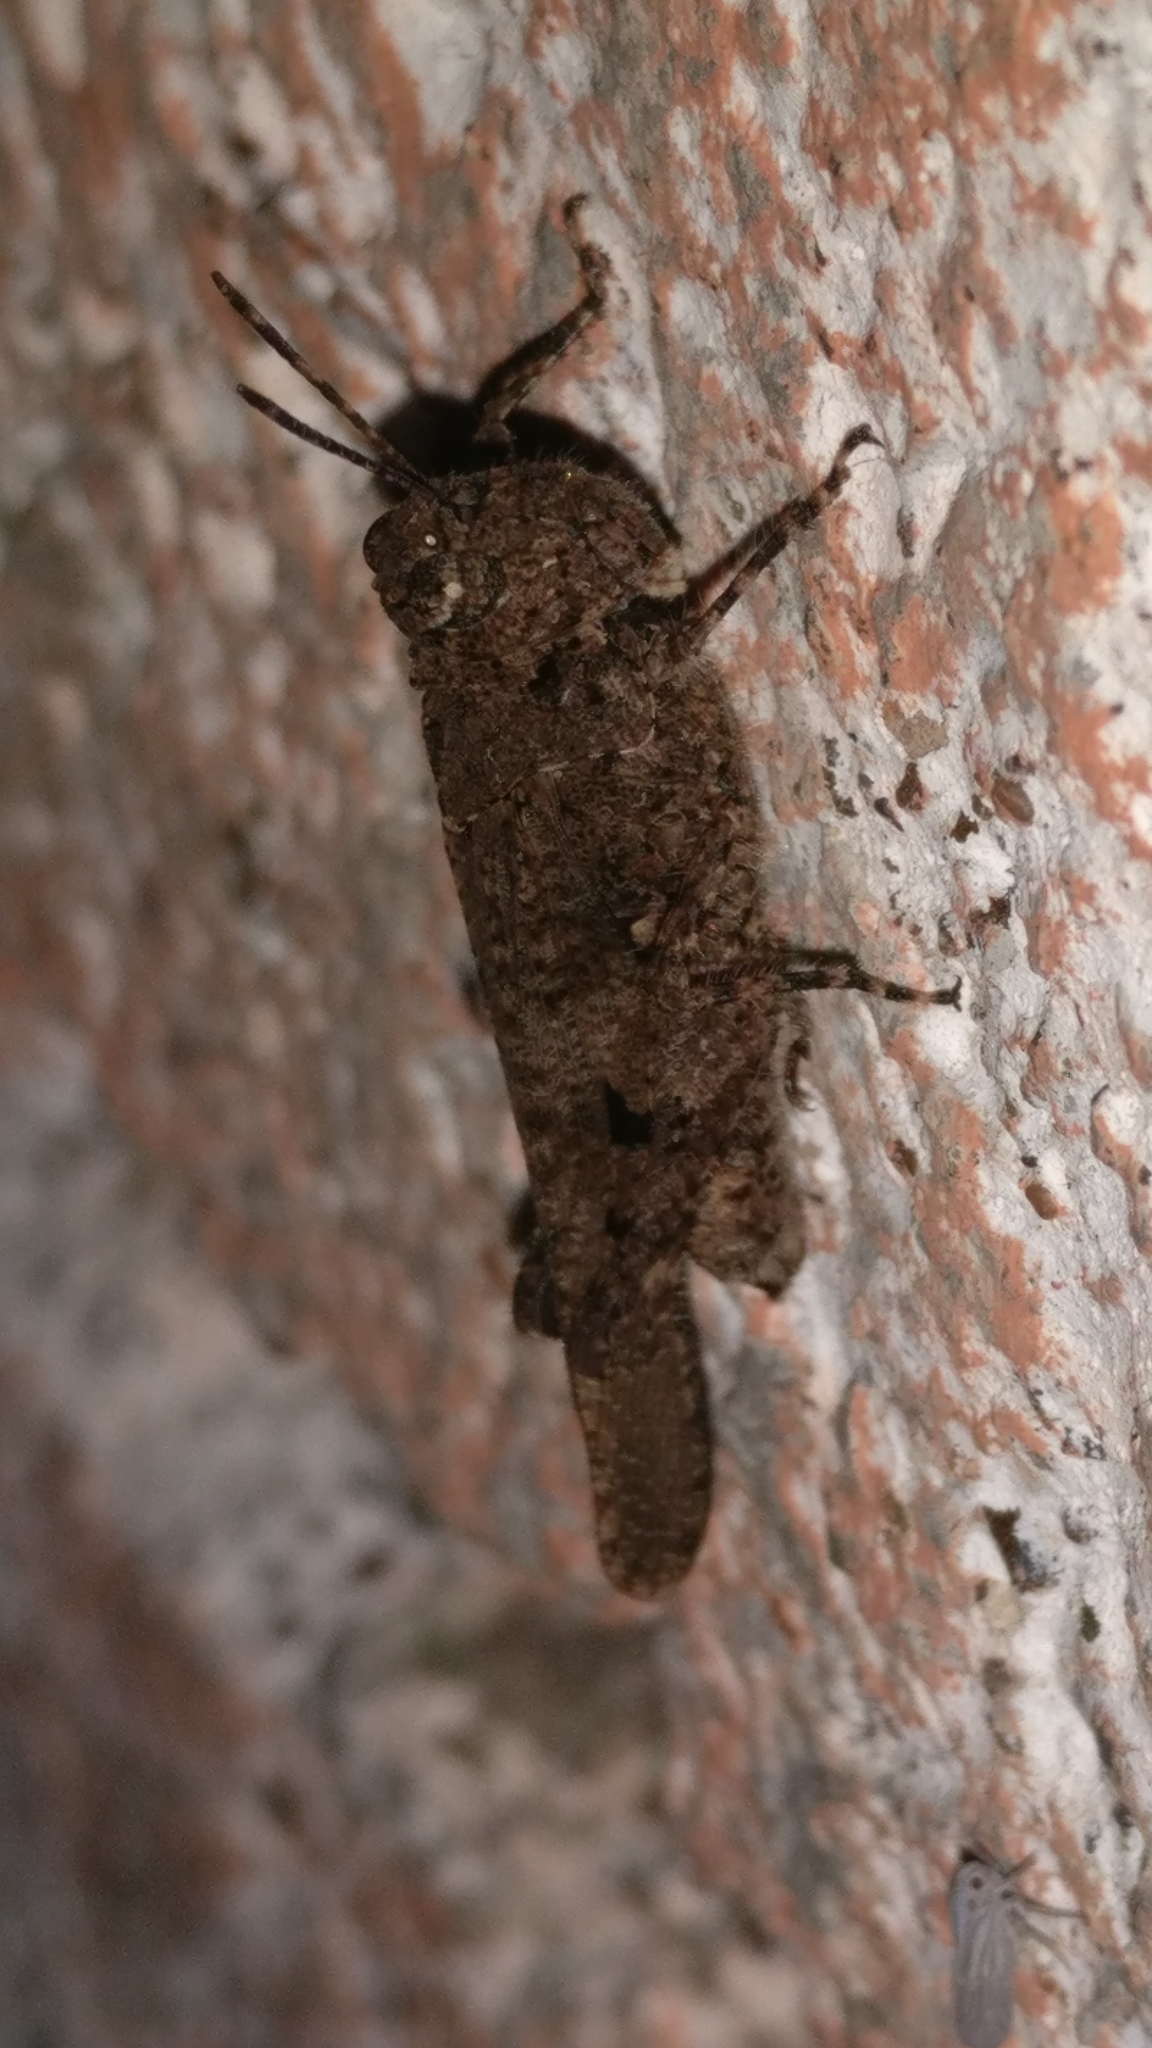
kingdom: Animalia
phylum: Arthropoda
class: Insecta
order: Orthoptera
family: Acrididae
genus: Trilophidia
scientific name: Trilophidia annulata
